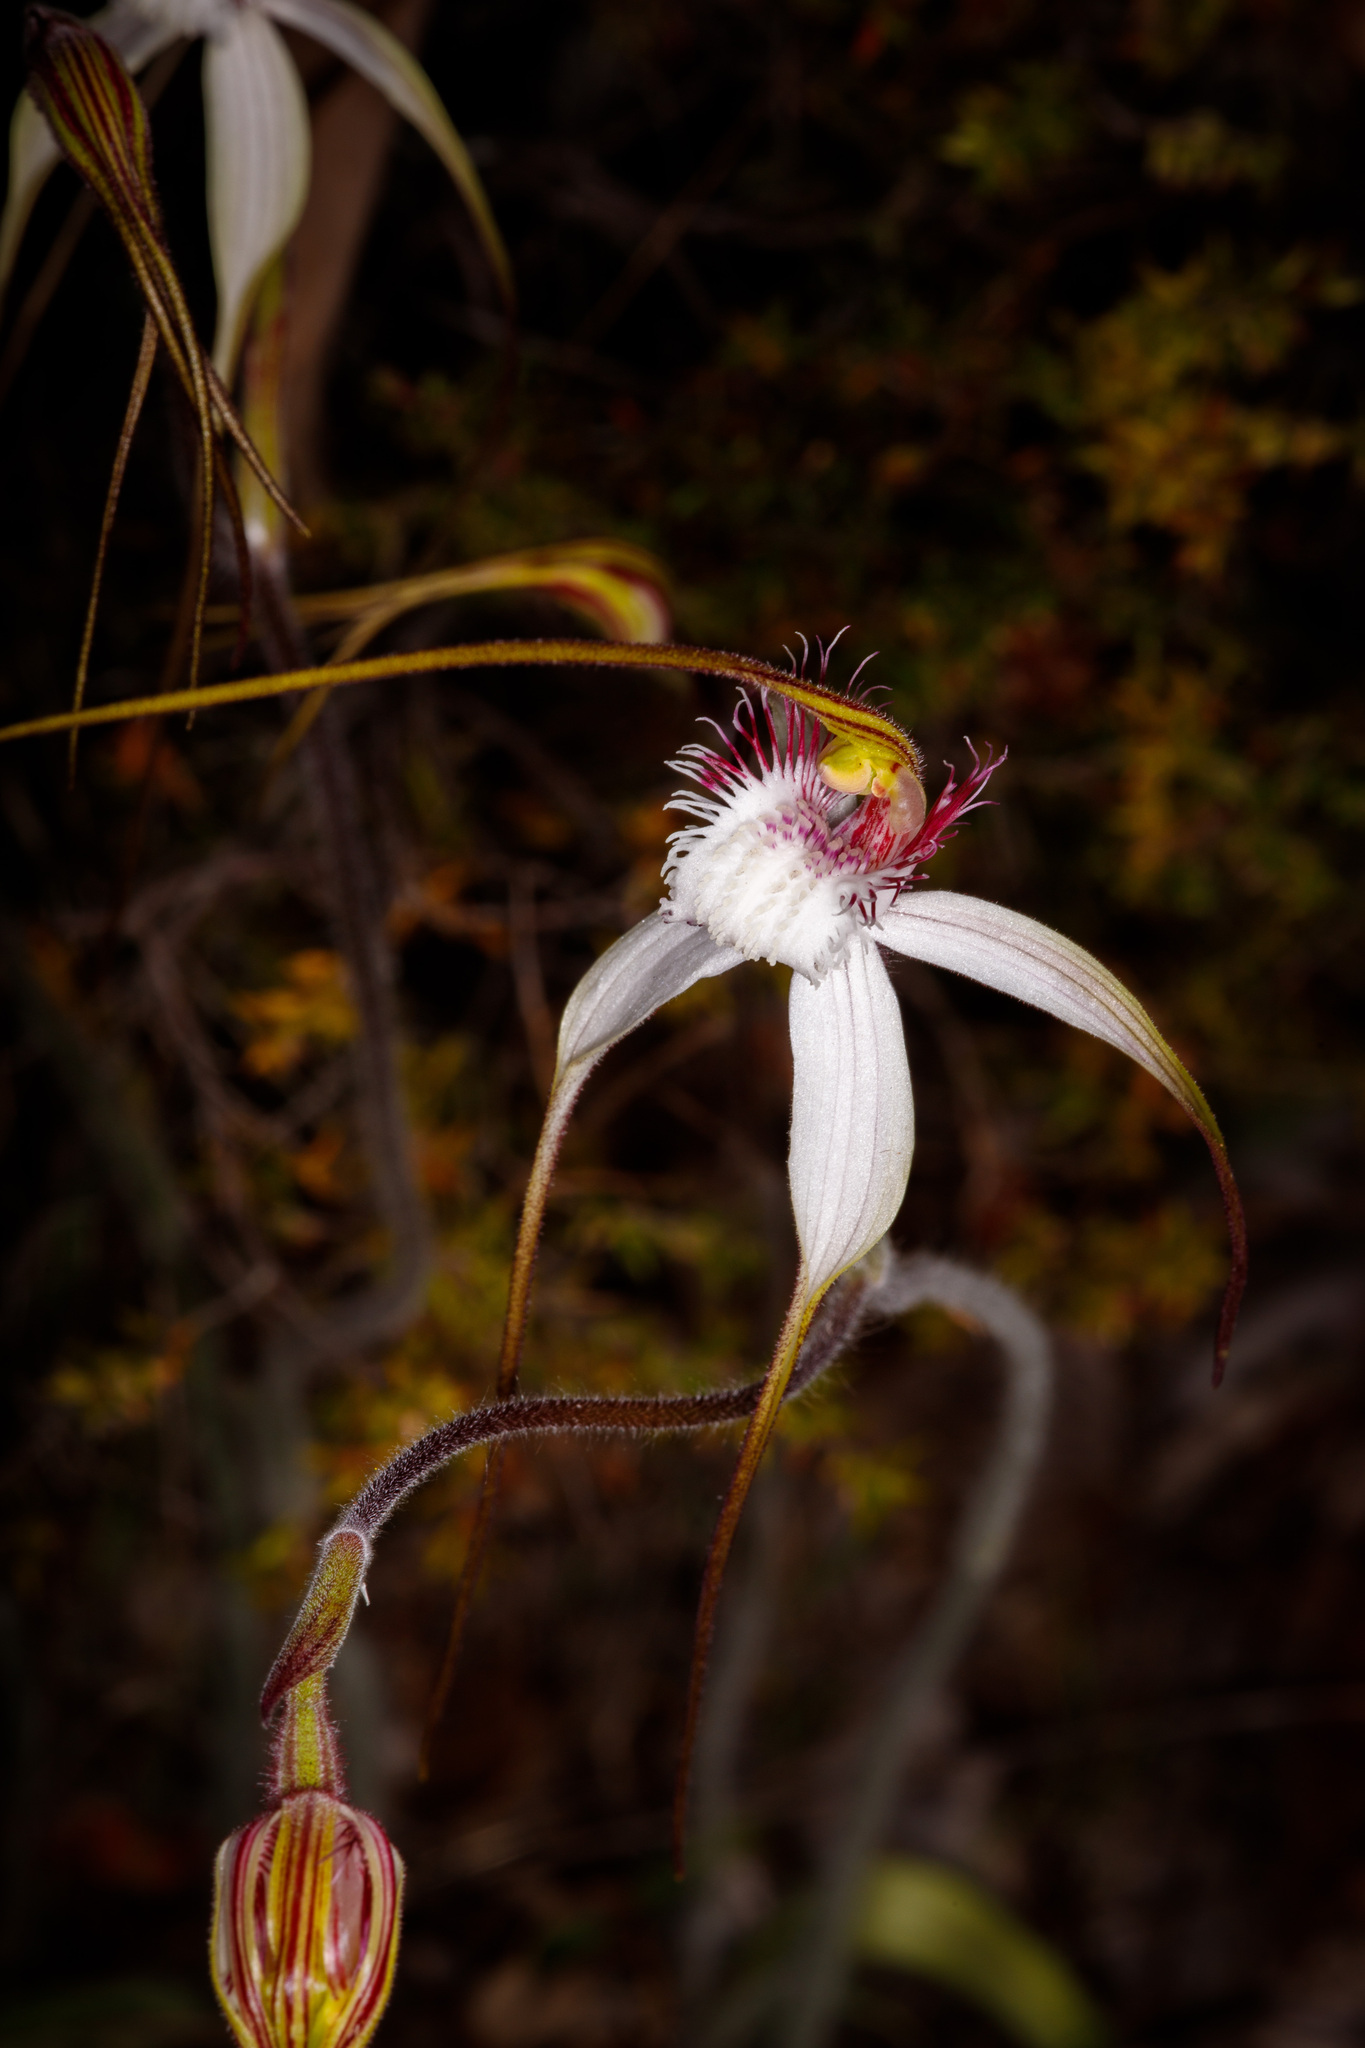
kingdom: Plantae
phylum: Tracheophyta
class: Liliopsida
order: Asparagales
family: Orchidaceae
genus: Caladenia
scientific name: Caladenia speciosa
